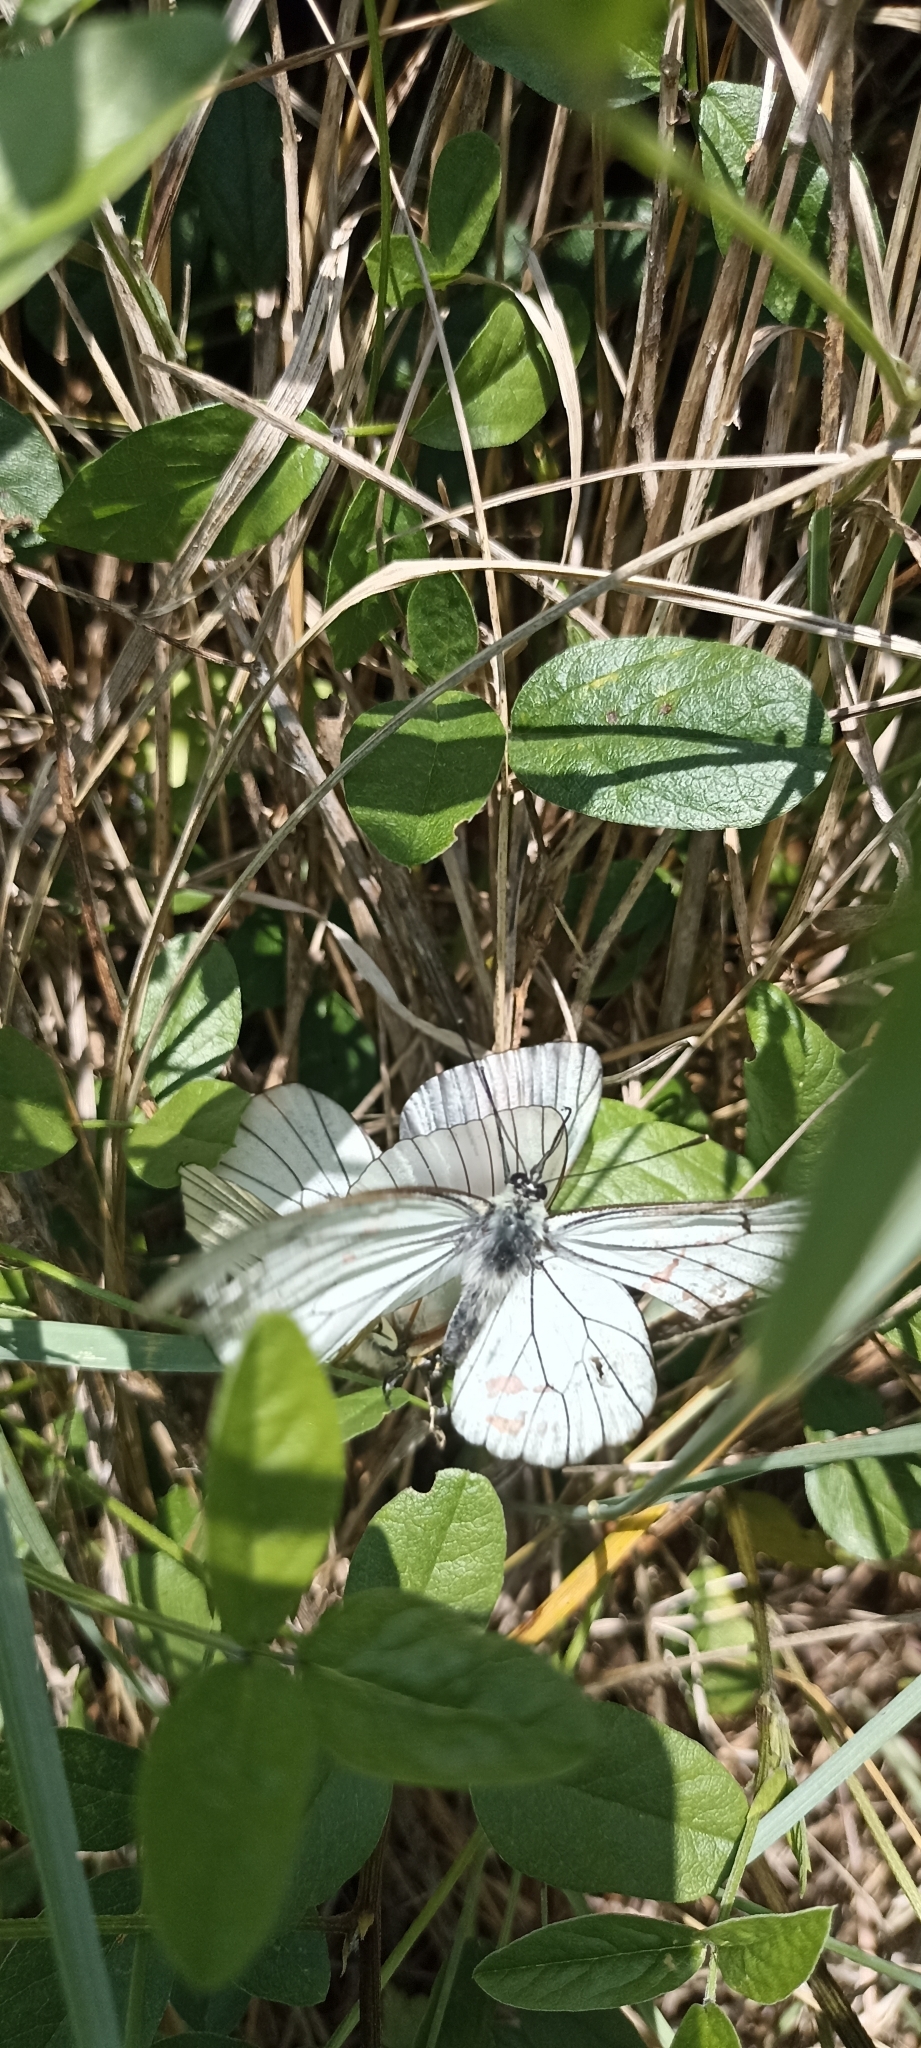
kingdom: Animalia
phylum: Arthropoda
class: Insecta
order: Lepidoptera
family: Pieridae
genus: Aporia
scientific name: Aporia crataegi
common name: Black-veined white
